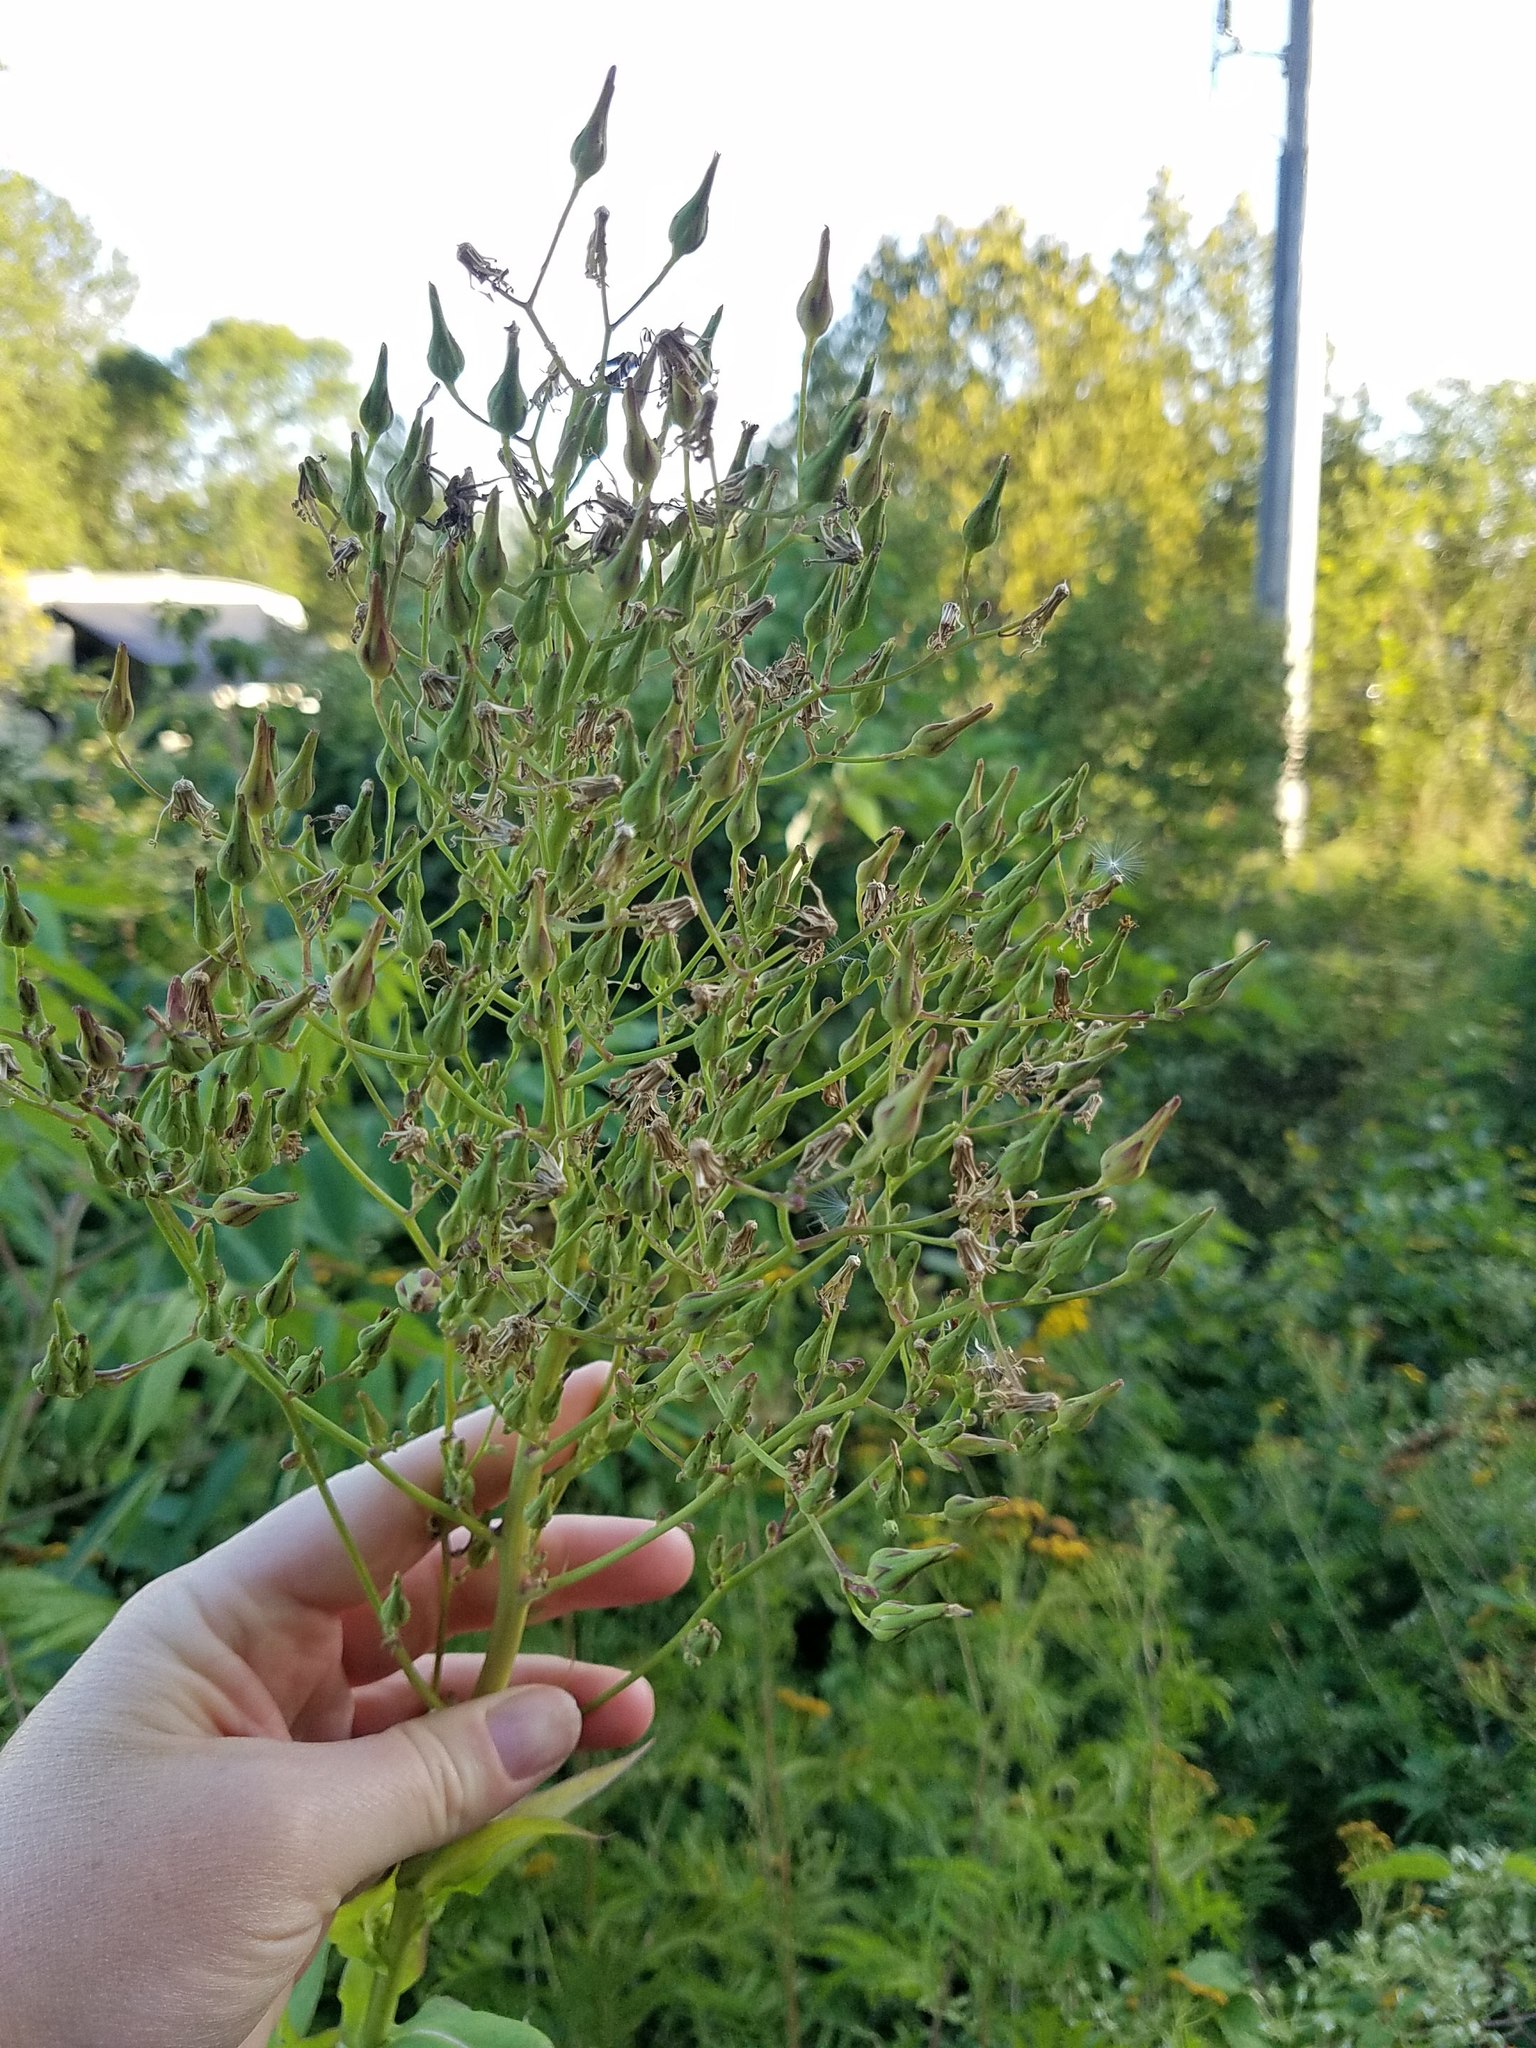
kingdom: Plantae
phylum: Tracheophyta
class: Magnoliopsida
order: Asterales
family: Asteraceae
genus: Lactuca
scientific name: Lactuca canadensis
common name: Canada lettuce
